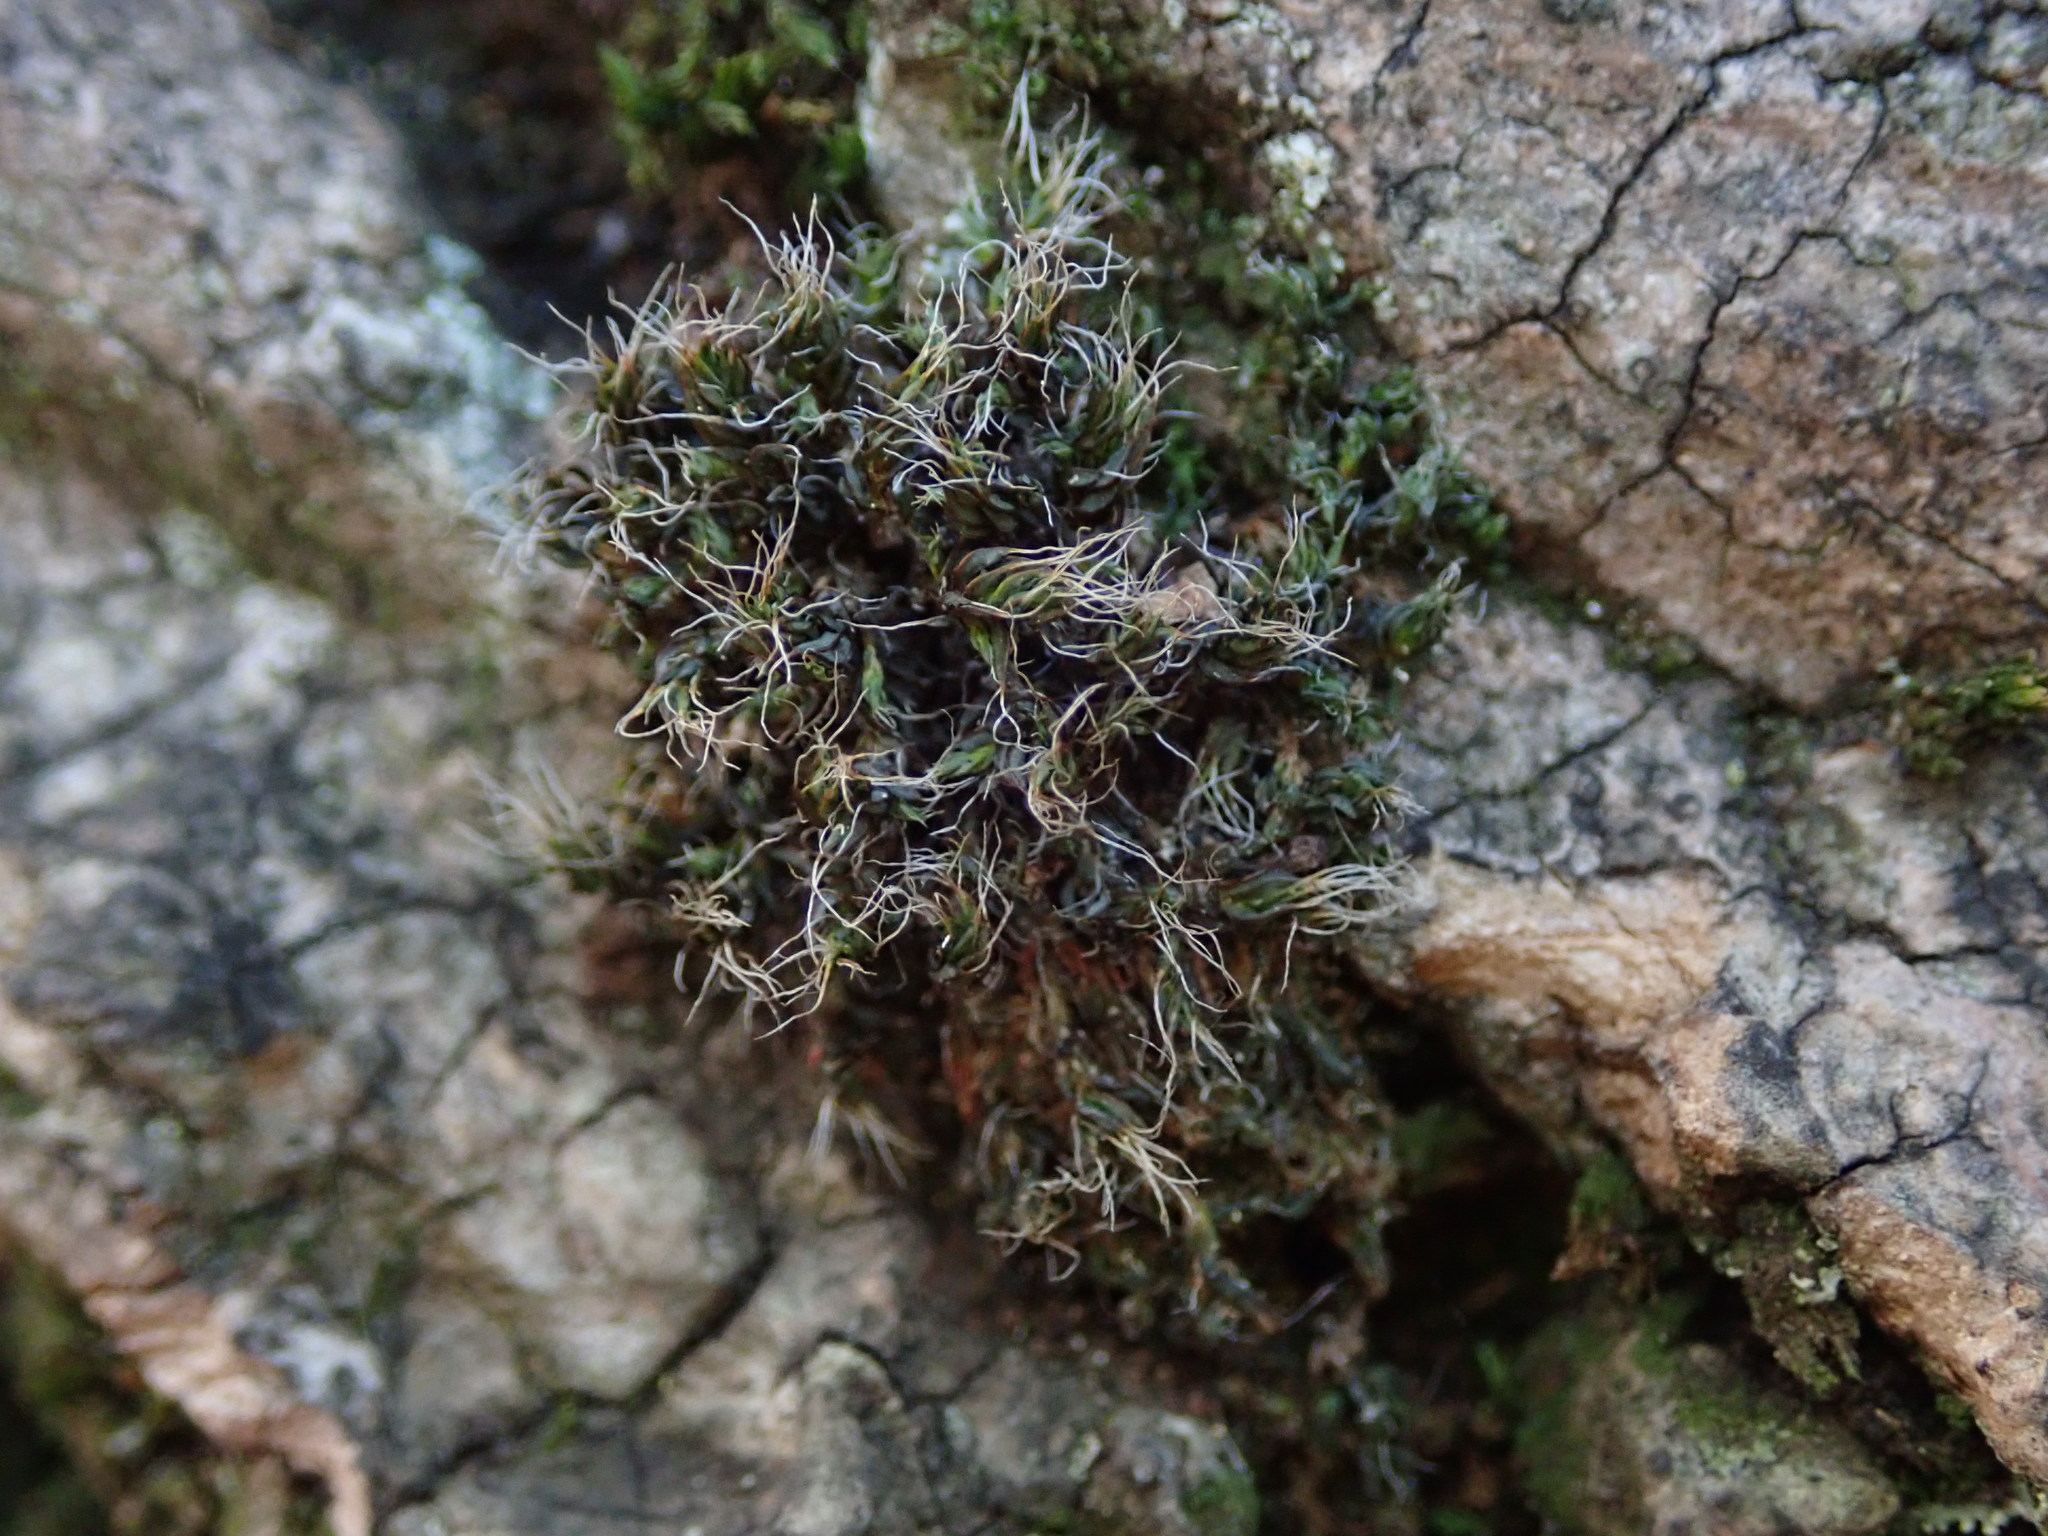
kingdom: Plantae
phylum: Bryophyta
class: Bryopsida
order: Grimmiales
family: Grimmiaceae
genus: Grimmia
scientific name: Grimmia pulvinata
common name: Grey-cushioned grimmia
